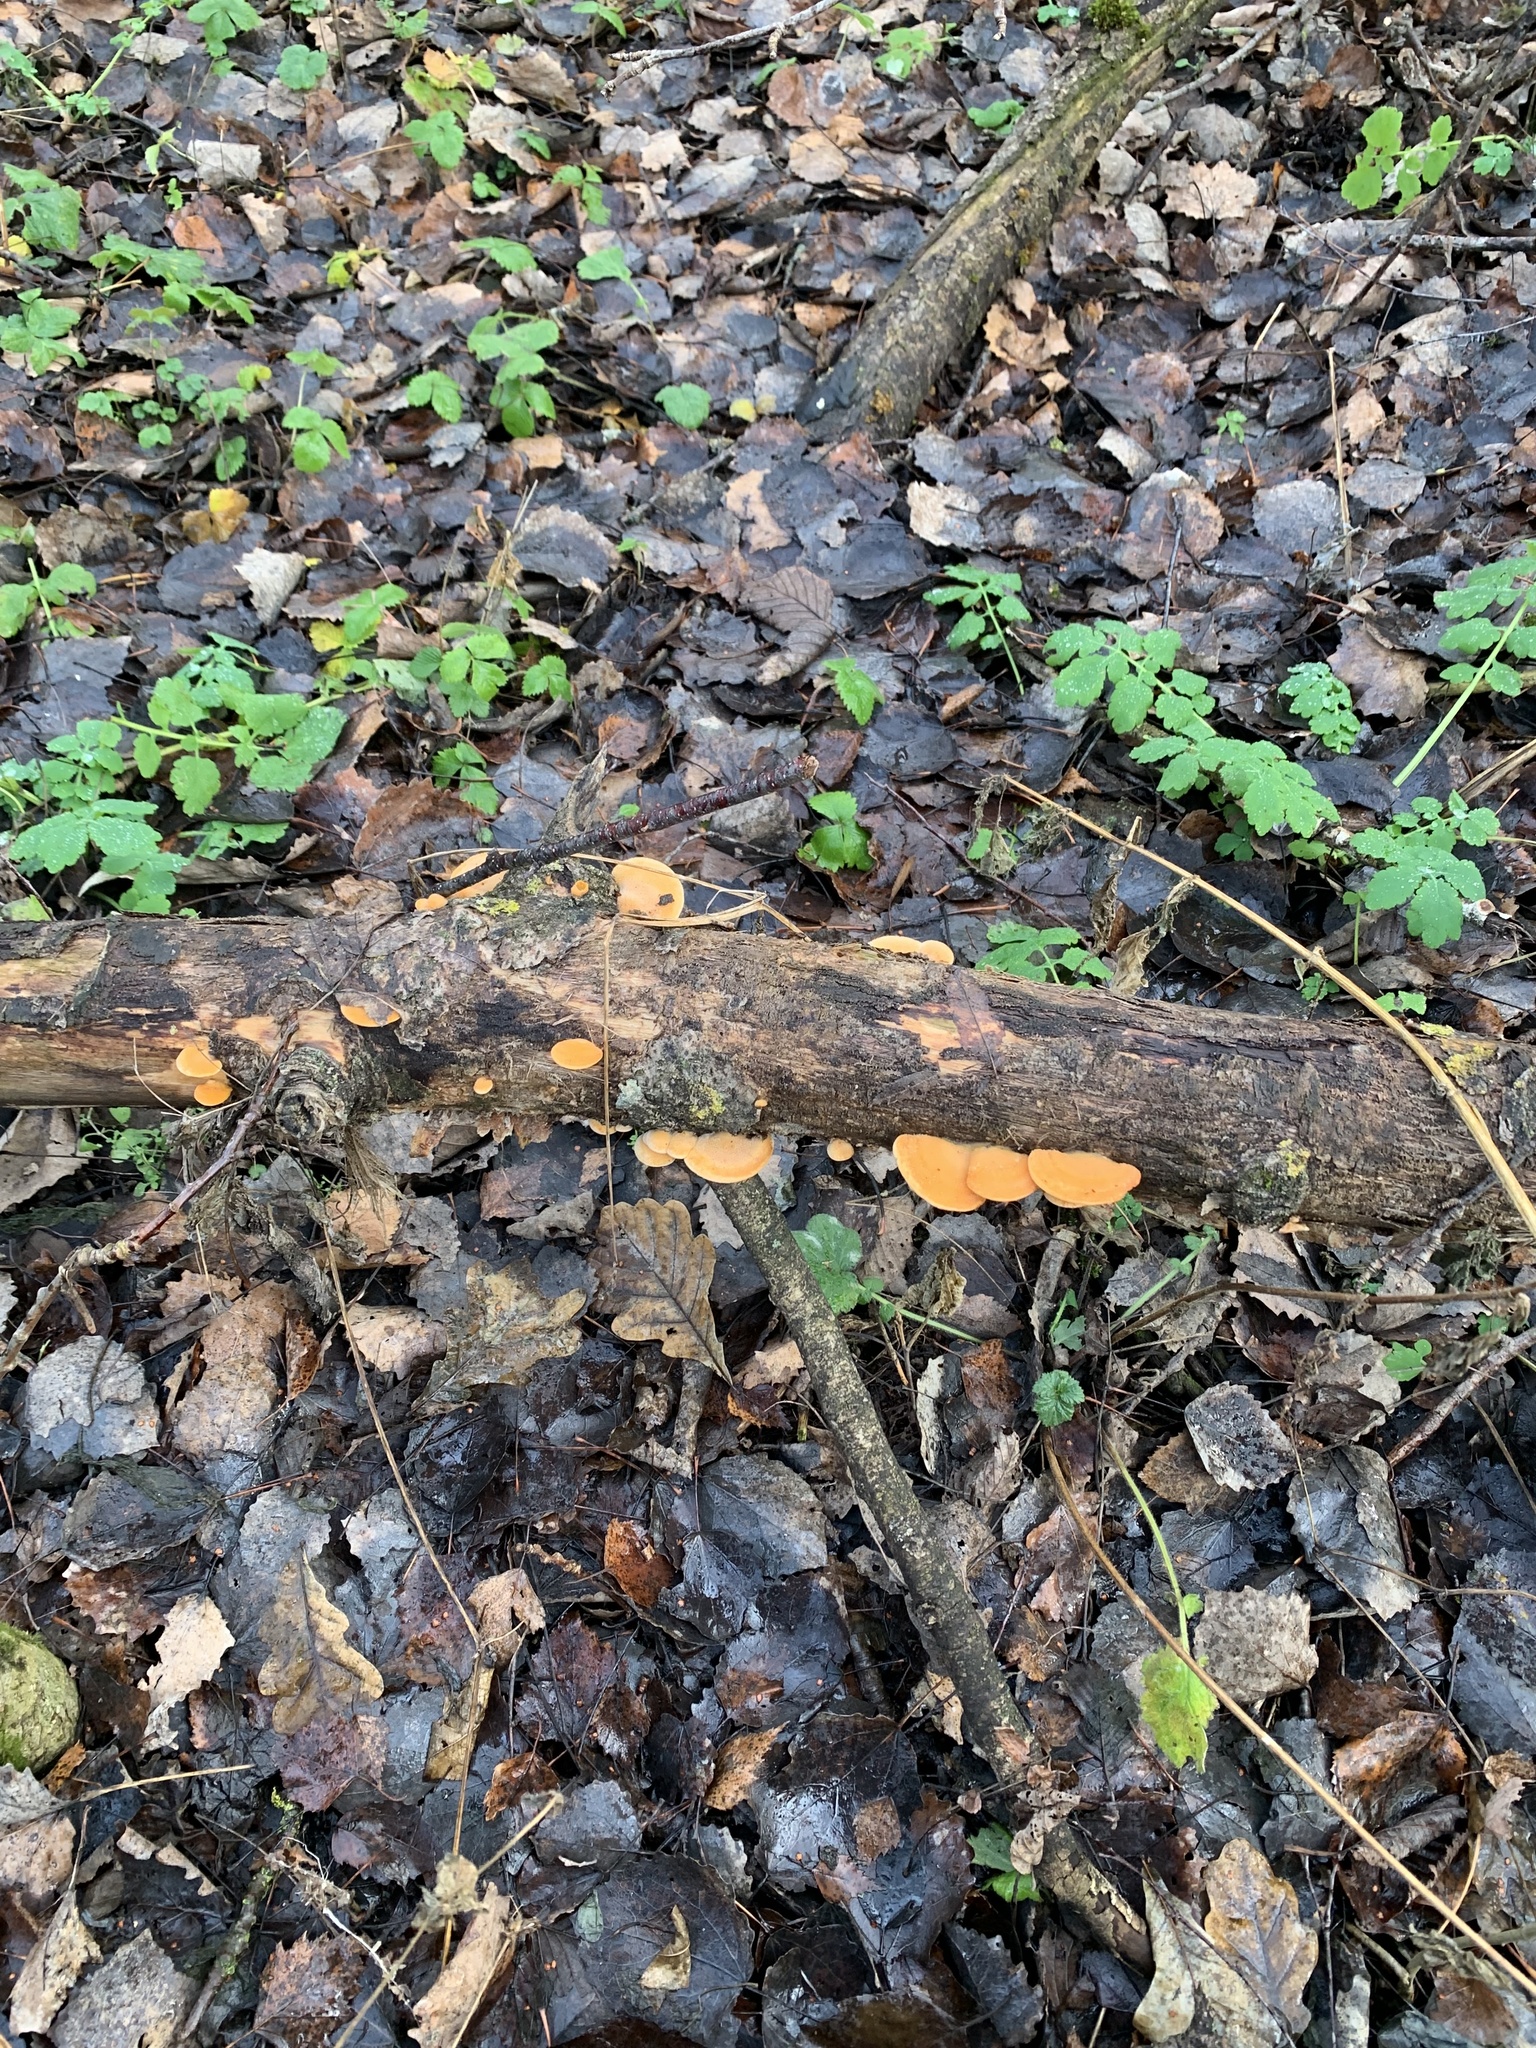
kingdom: Fungi
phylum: Basidiomycota
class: Agaricomycetes
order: Agaricales
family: Phyllotopsidaceae
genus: Phyllotopsis
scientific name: Phyllotopsis nidulans
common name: Orange mock oyster
